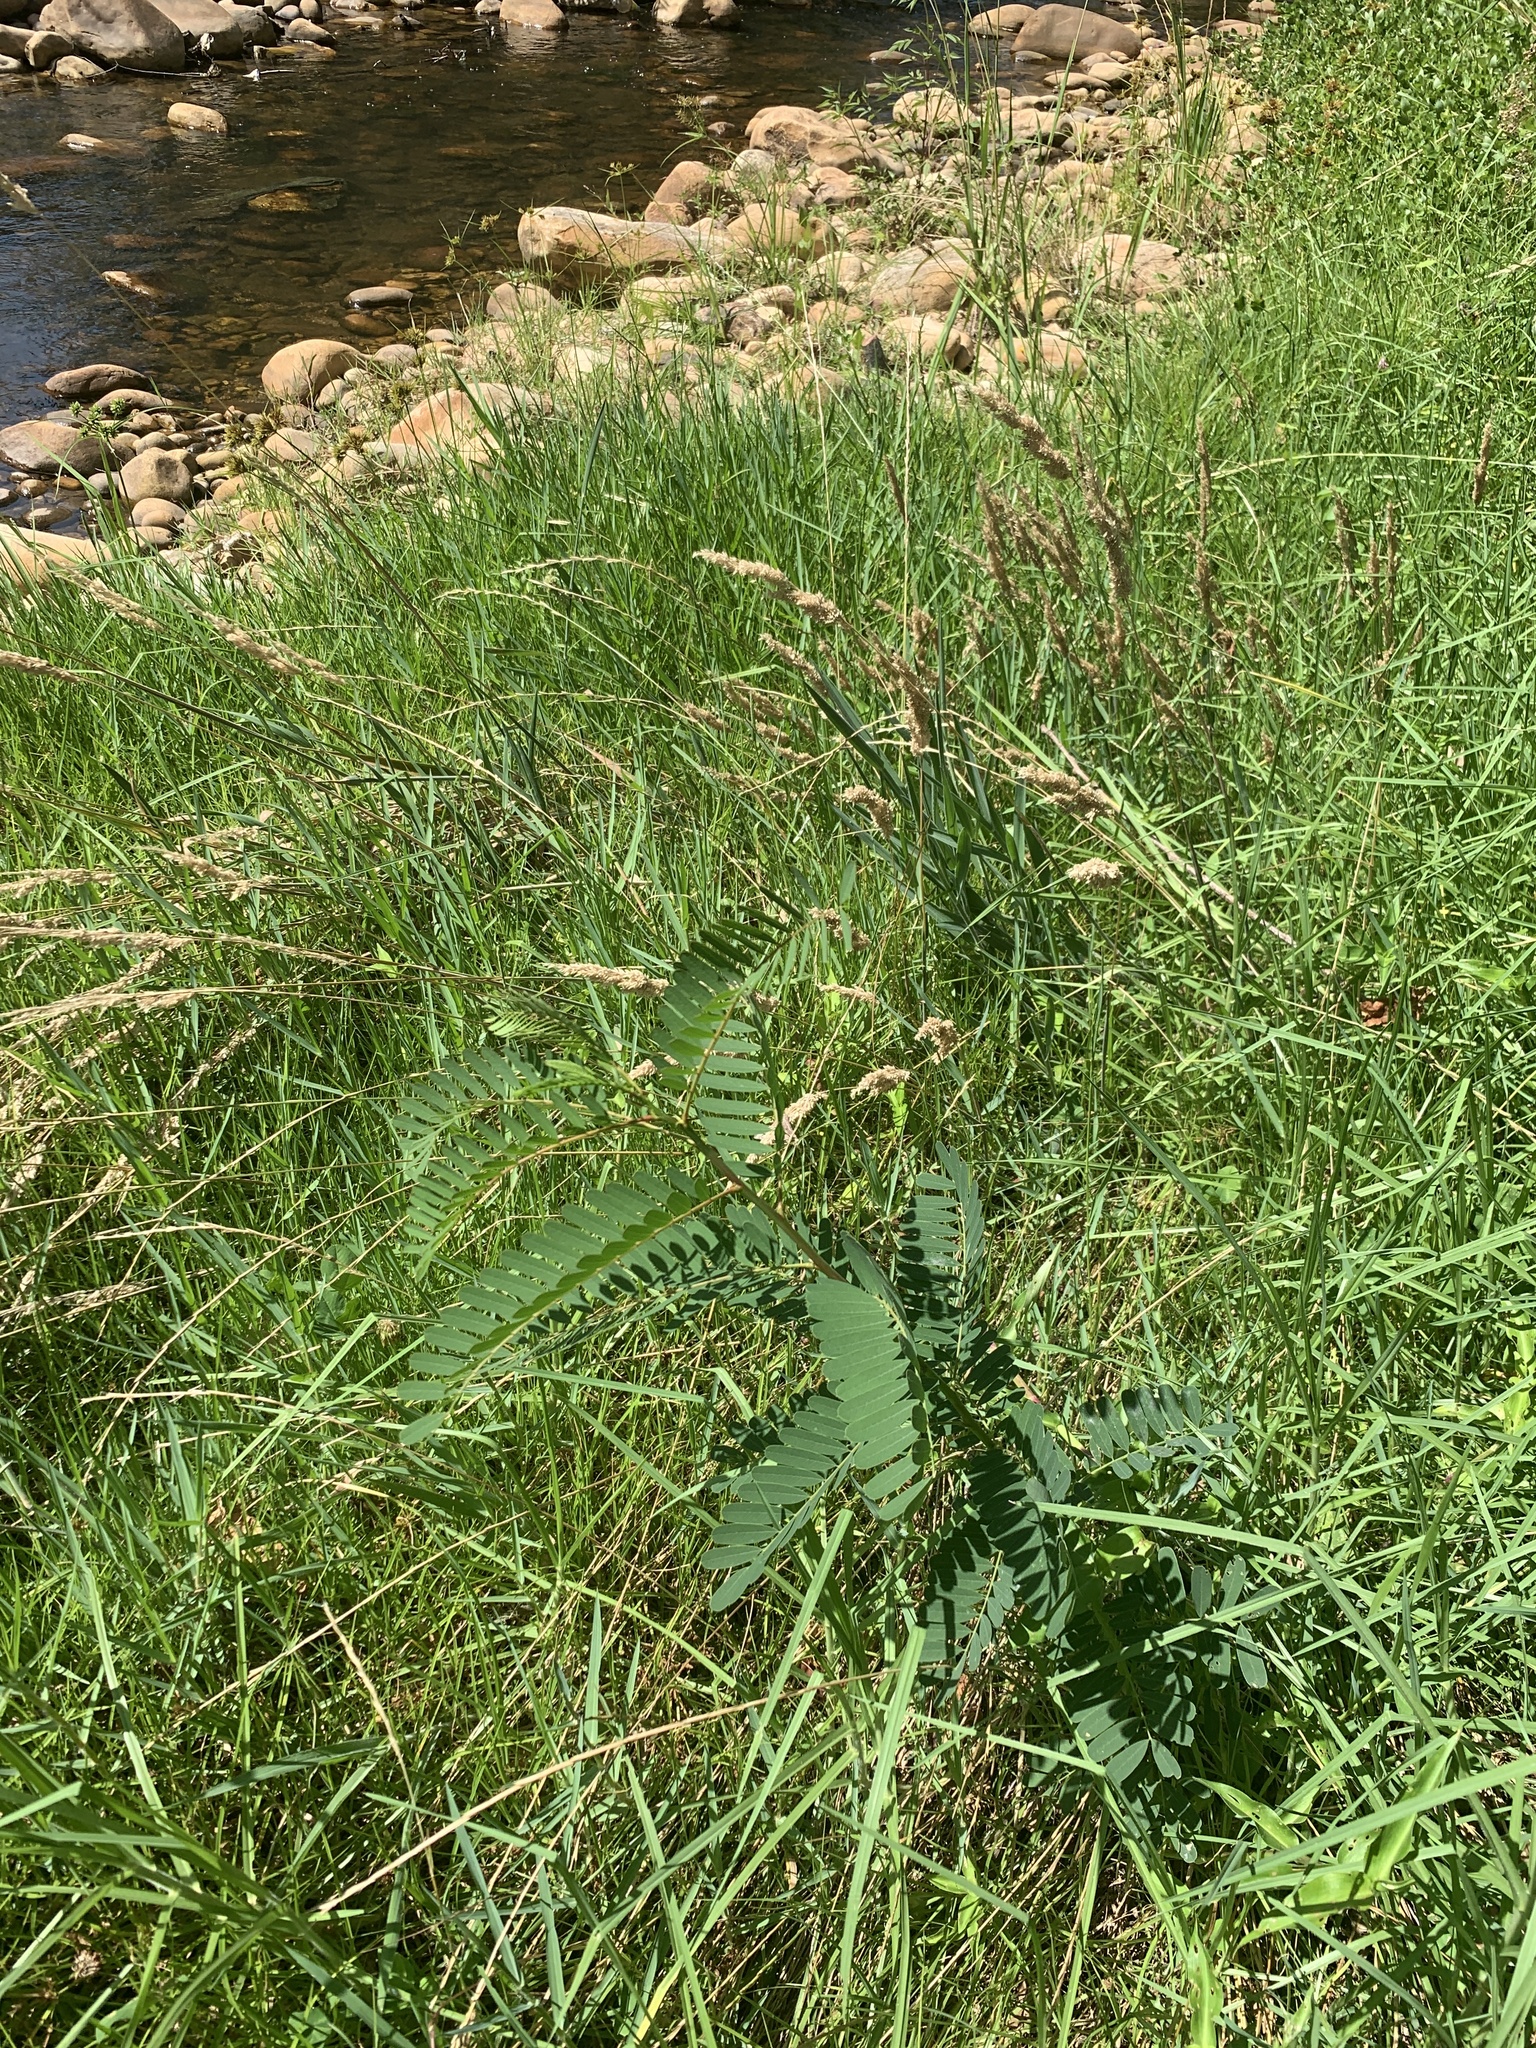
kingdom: Plantae
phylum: Tracheophyta
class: Magnoliopsida
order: Fabales
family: Fabaceae
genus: Sesbania
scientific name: Sesbania punicea
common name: Rattlebox
